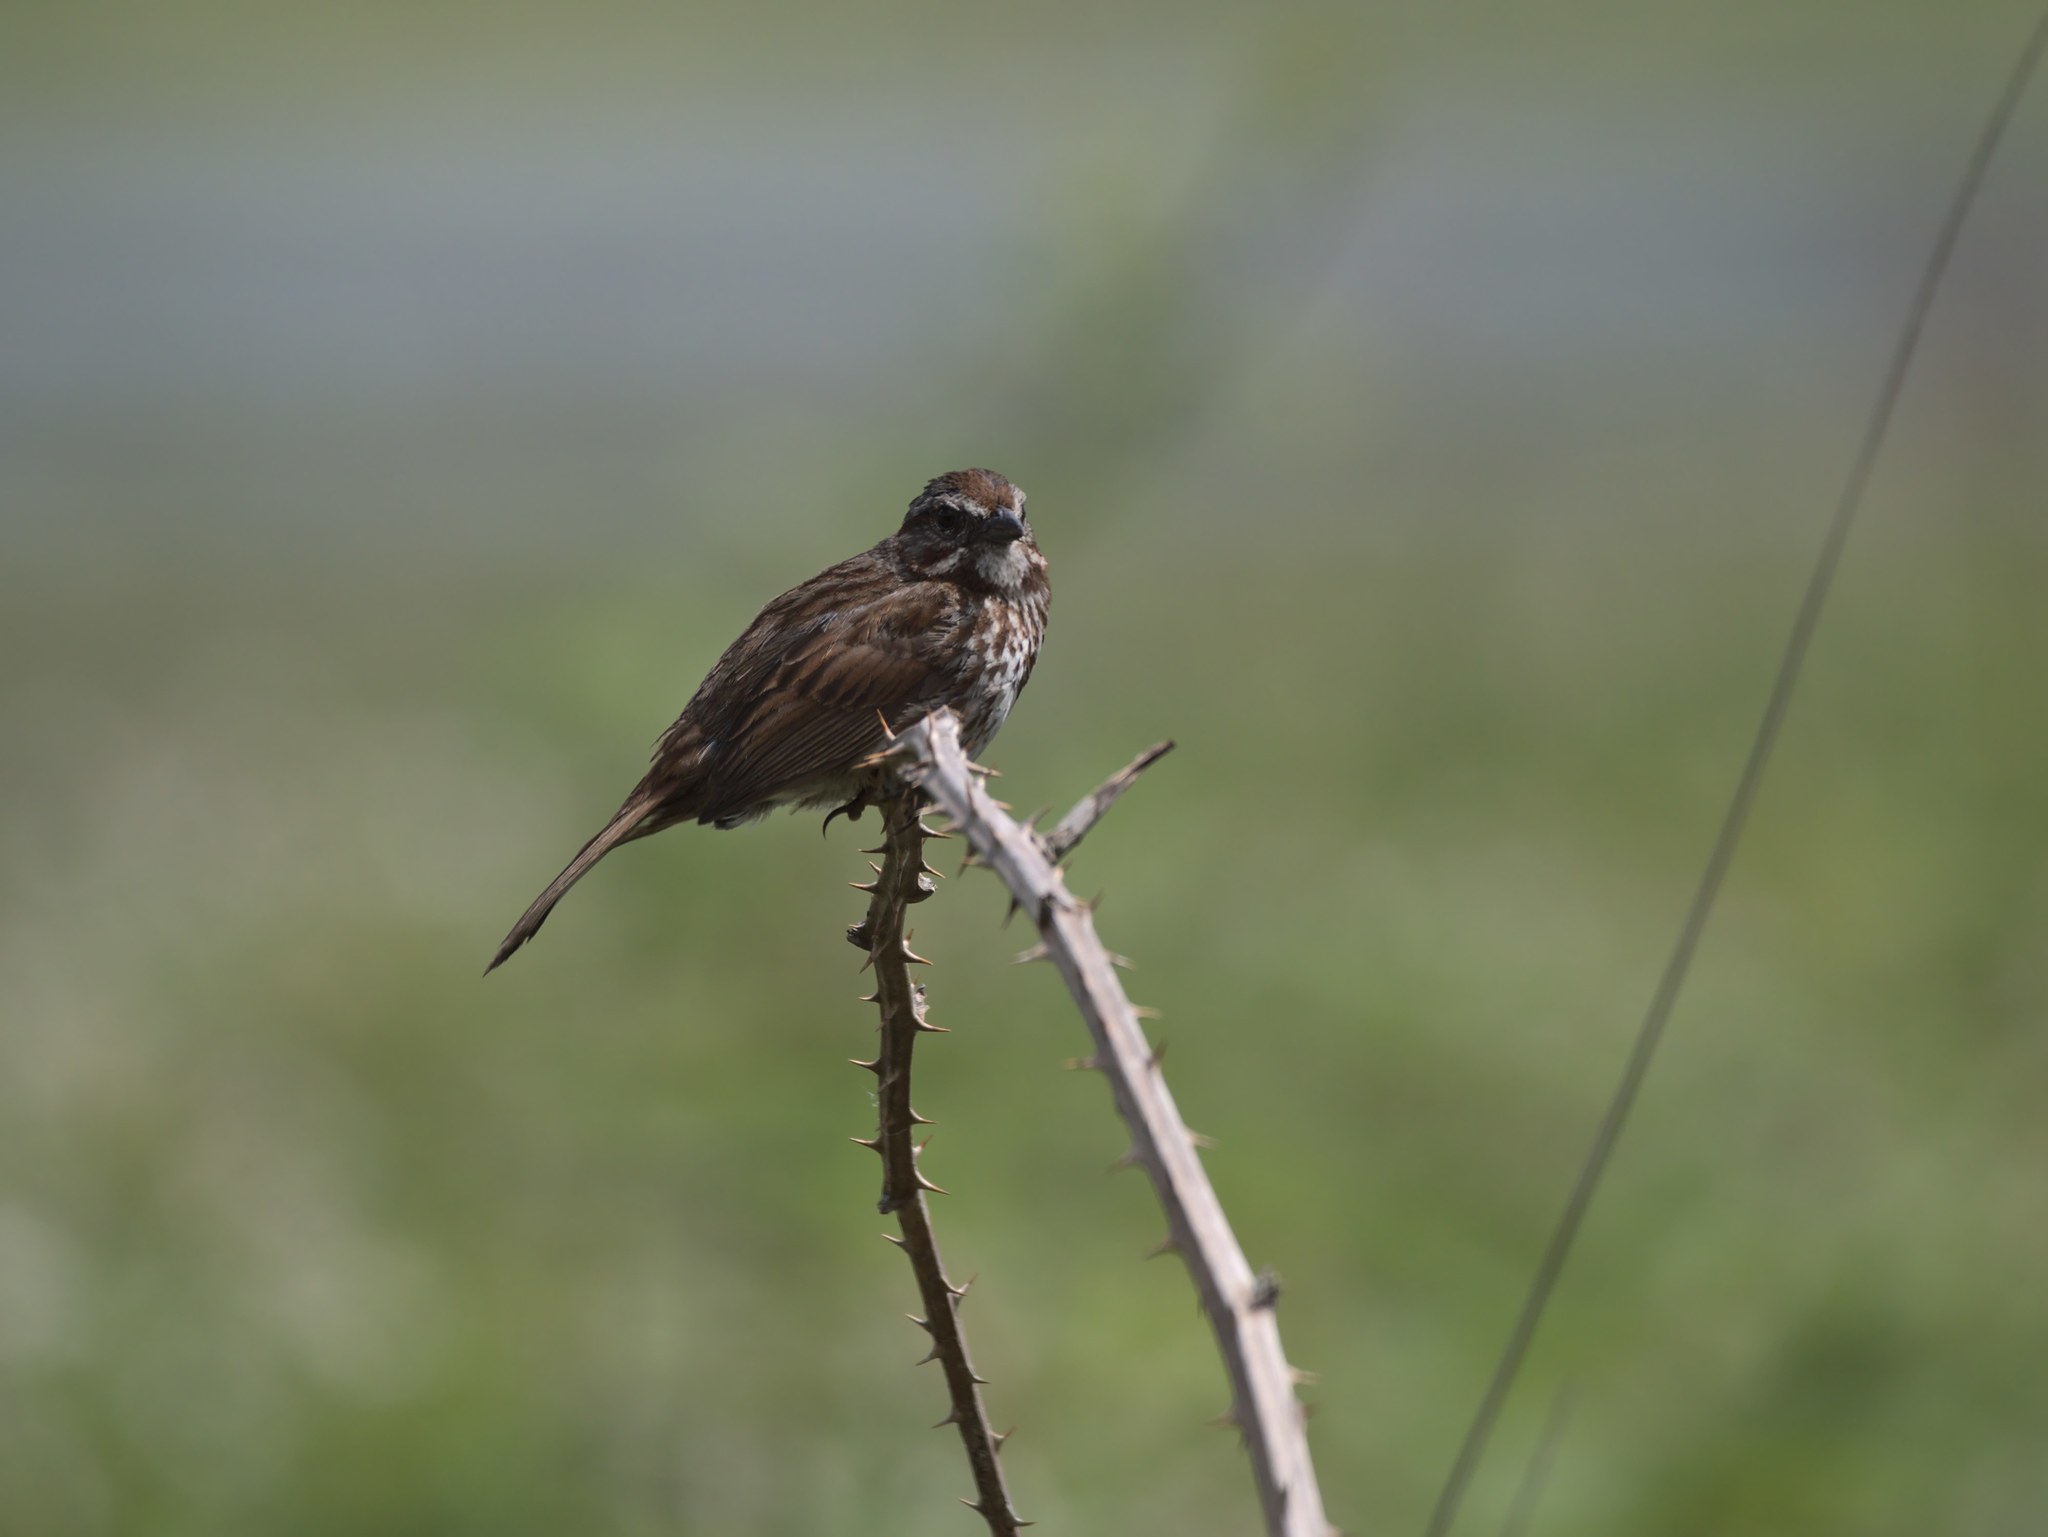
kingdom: Animalia
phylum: Chordata
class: Aves
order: Passeriformes
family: Passerellidae
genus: Melospiza
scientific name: Melospiza melodia
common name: Song sparrow
